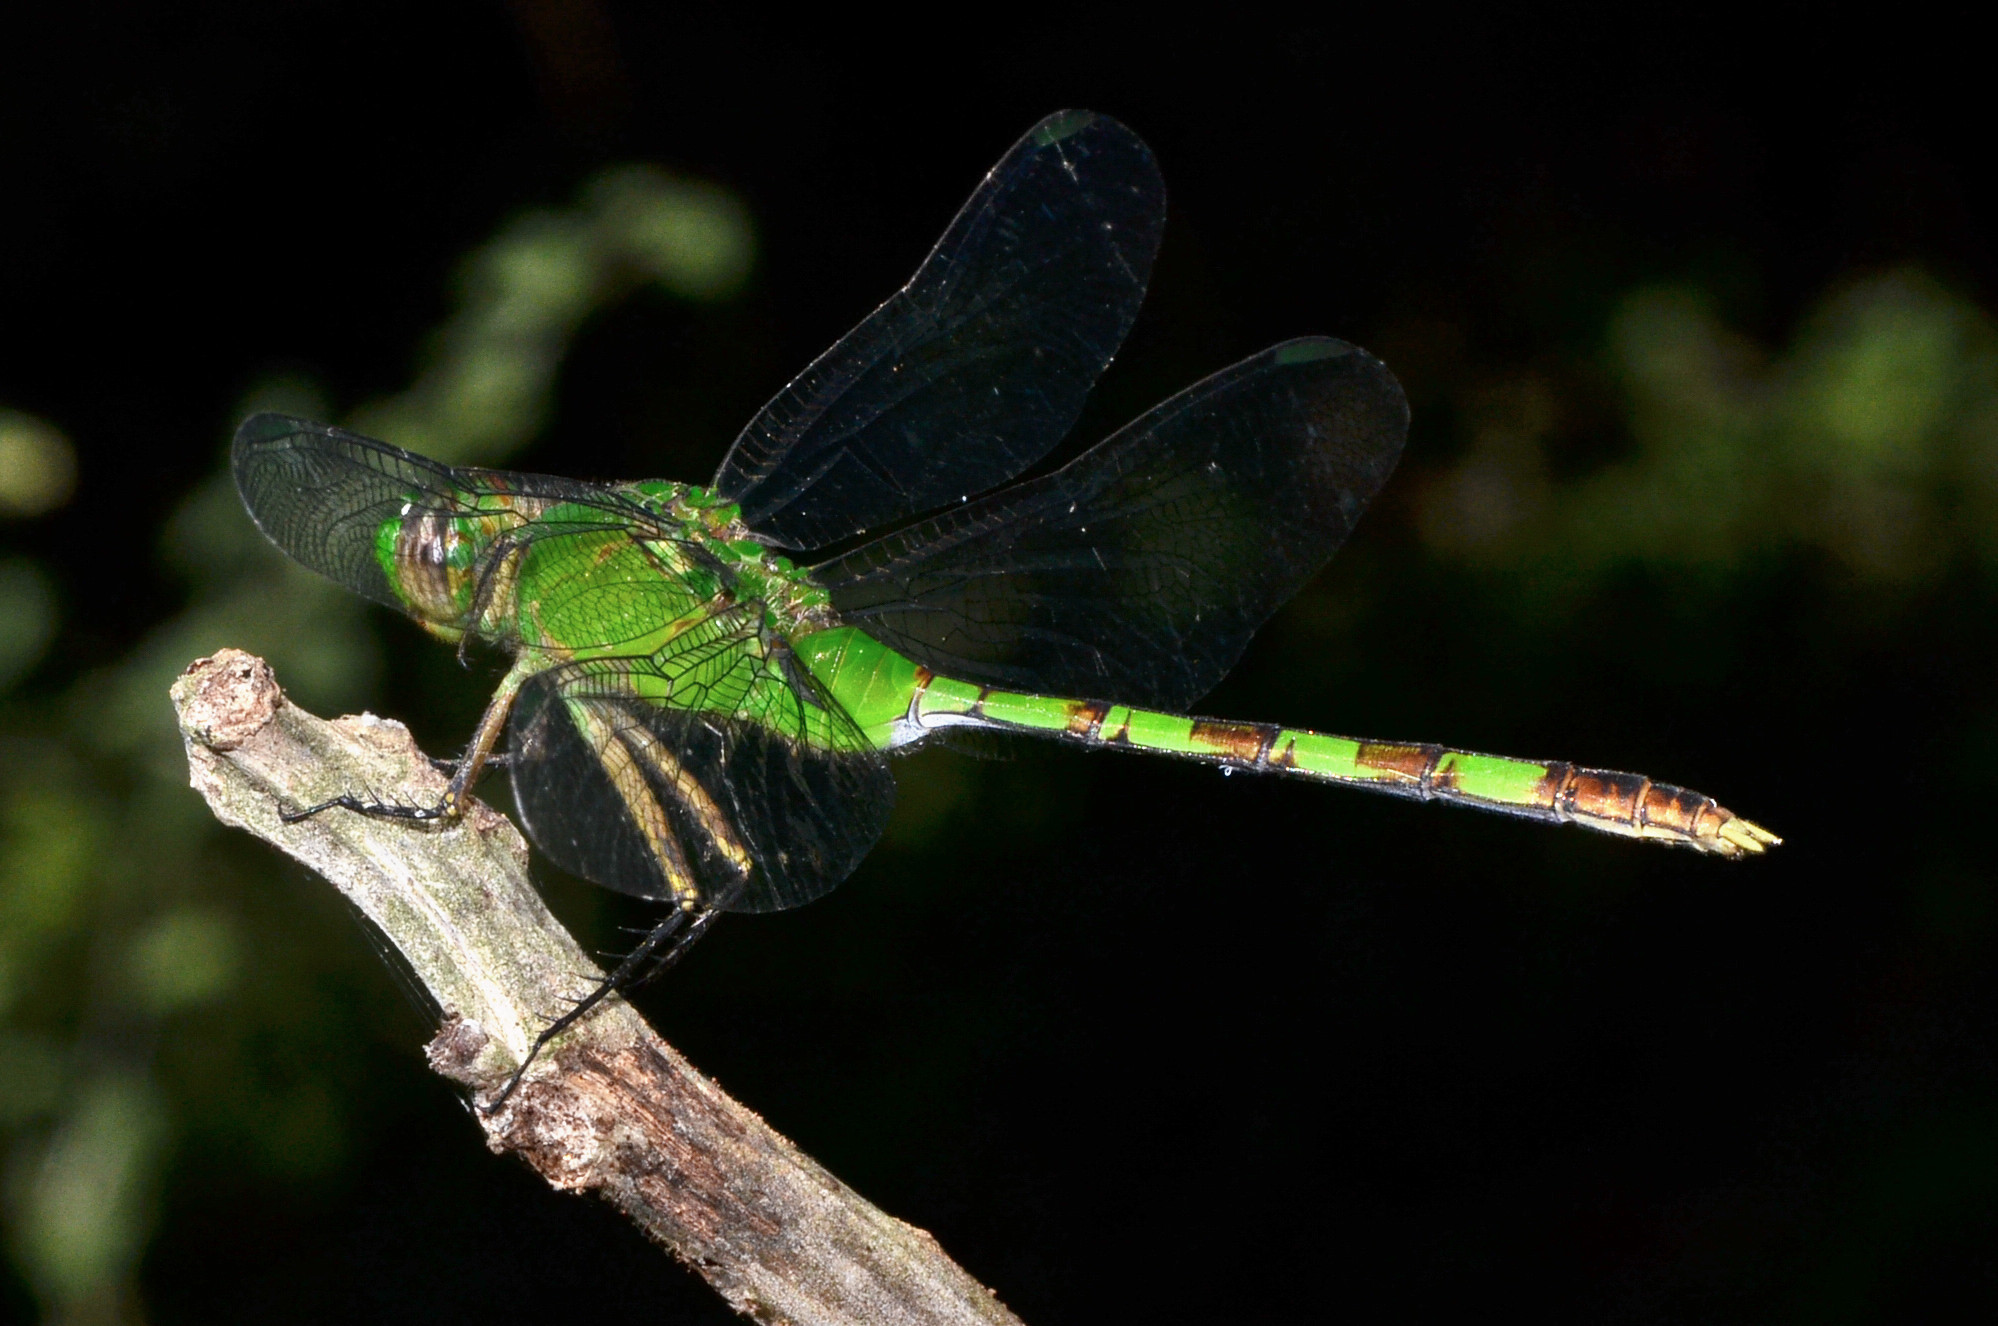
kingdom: Animalia
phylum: Arthropoda
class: Insecta
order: Odonata
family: Libellulidae
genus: Erythemis
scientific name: Erythemis vesiculosa
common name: Great pondhawk
